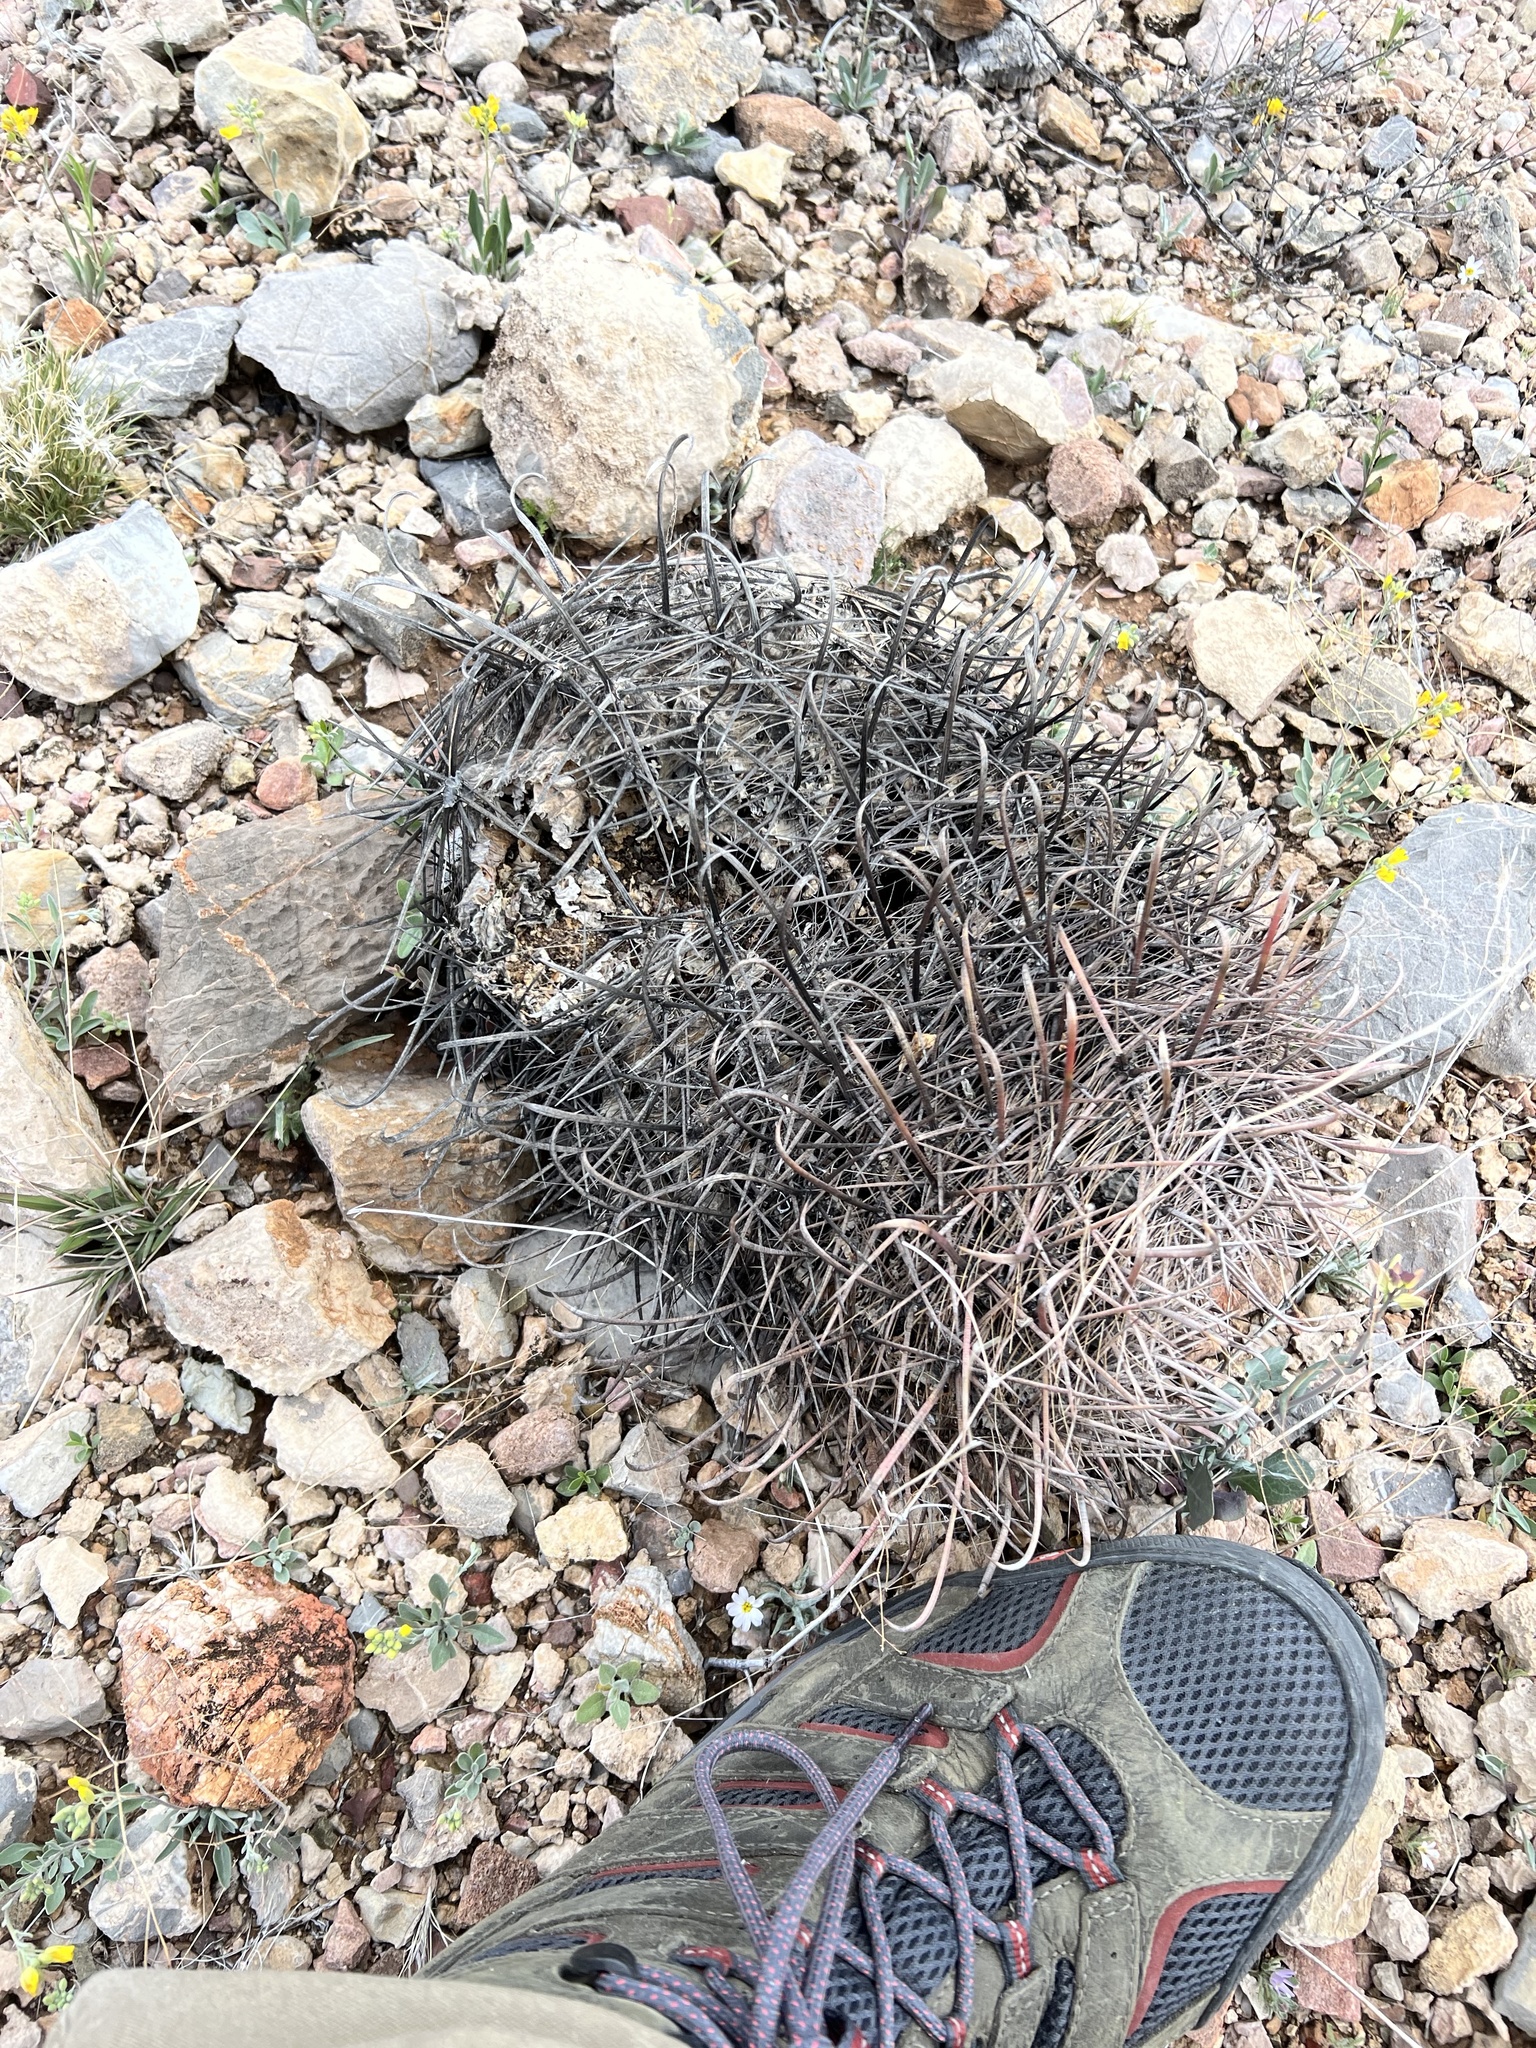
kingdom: Plantae
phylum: Tracheophyta
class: Magnoliopsida
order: Caryophyllales
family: Cactaceae
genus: Ferocactus
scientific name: Ferocactus cylindraceus
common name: California barrel cactus
